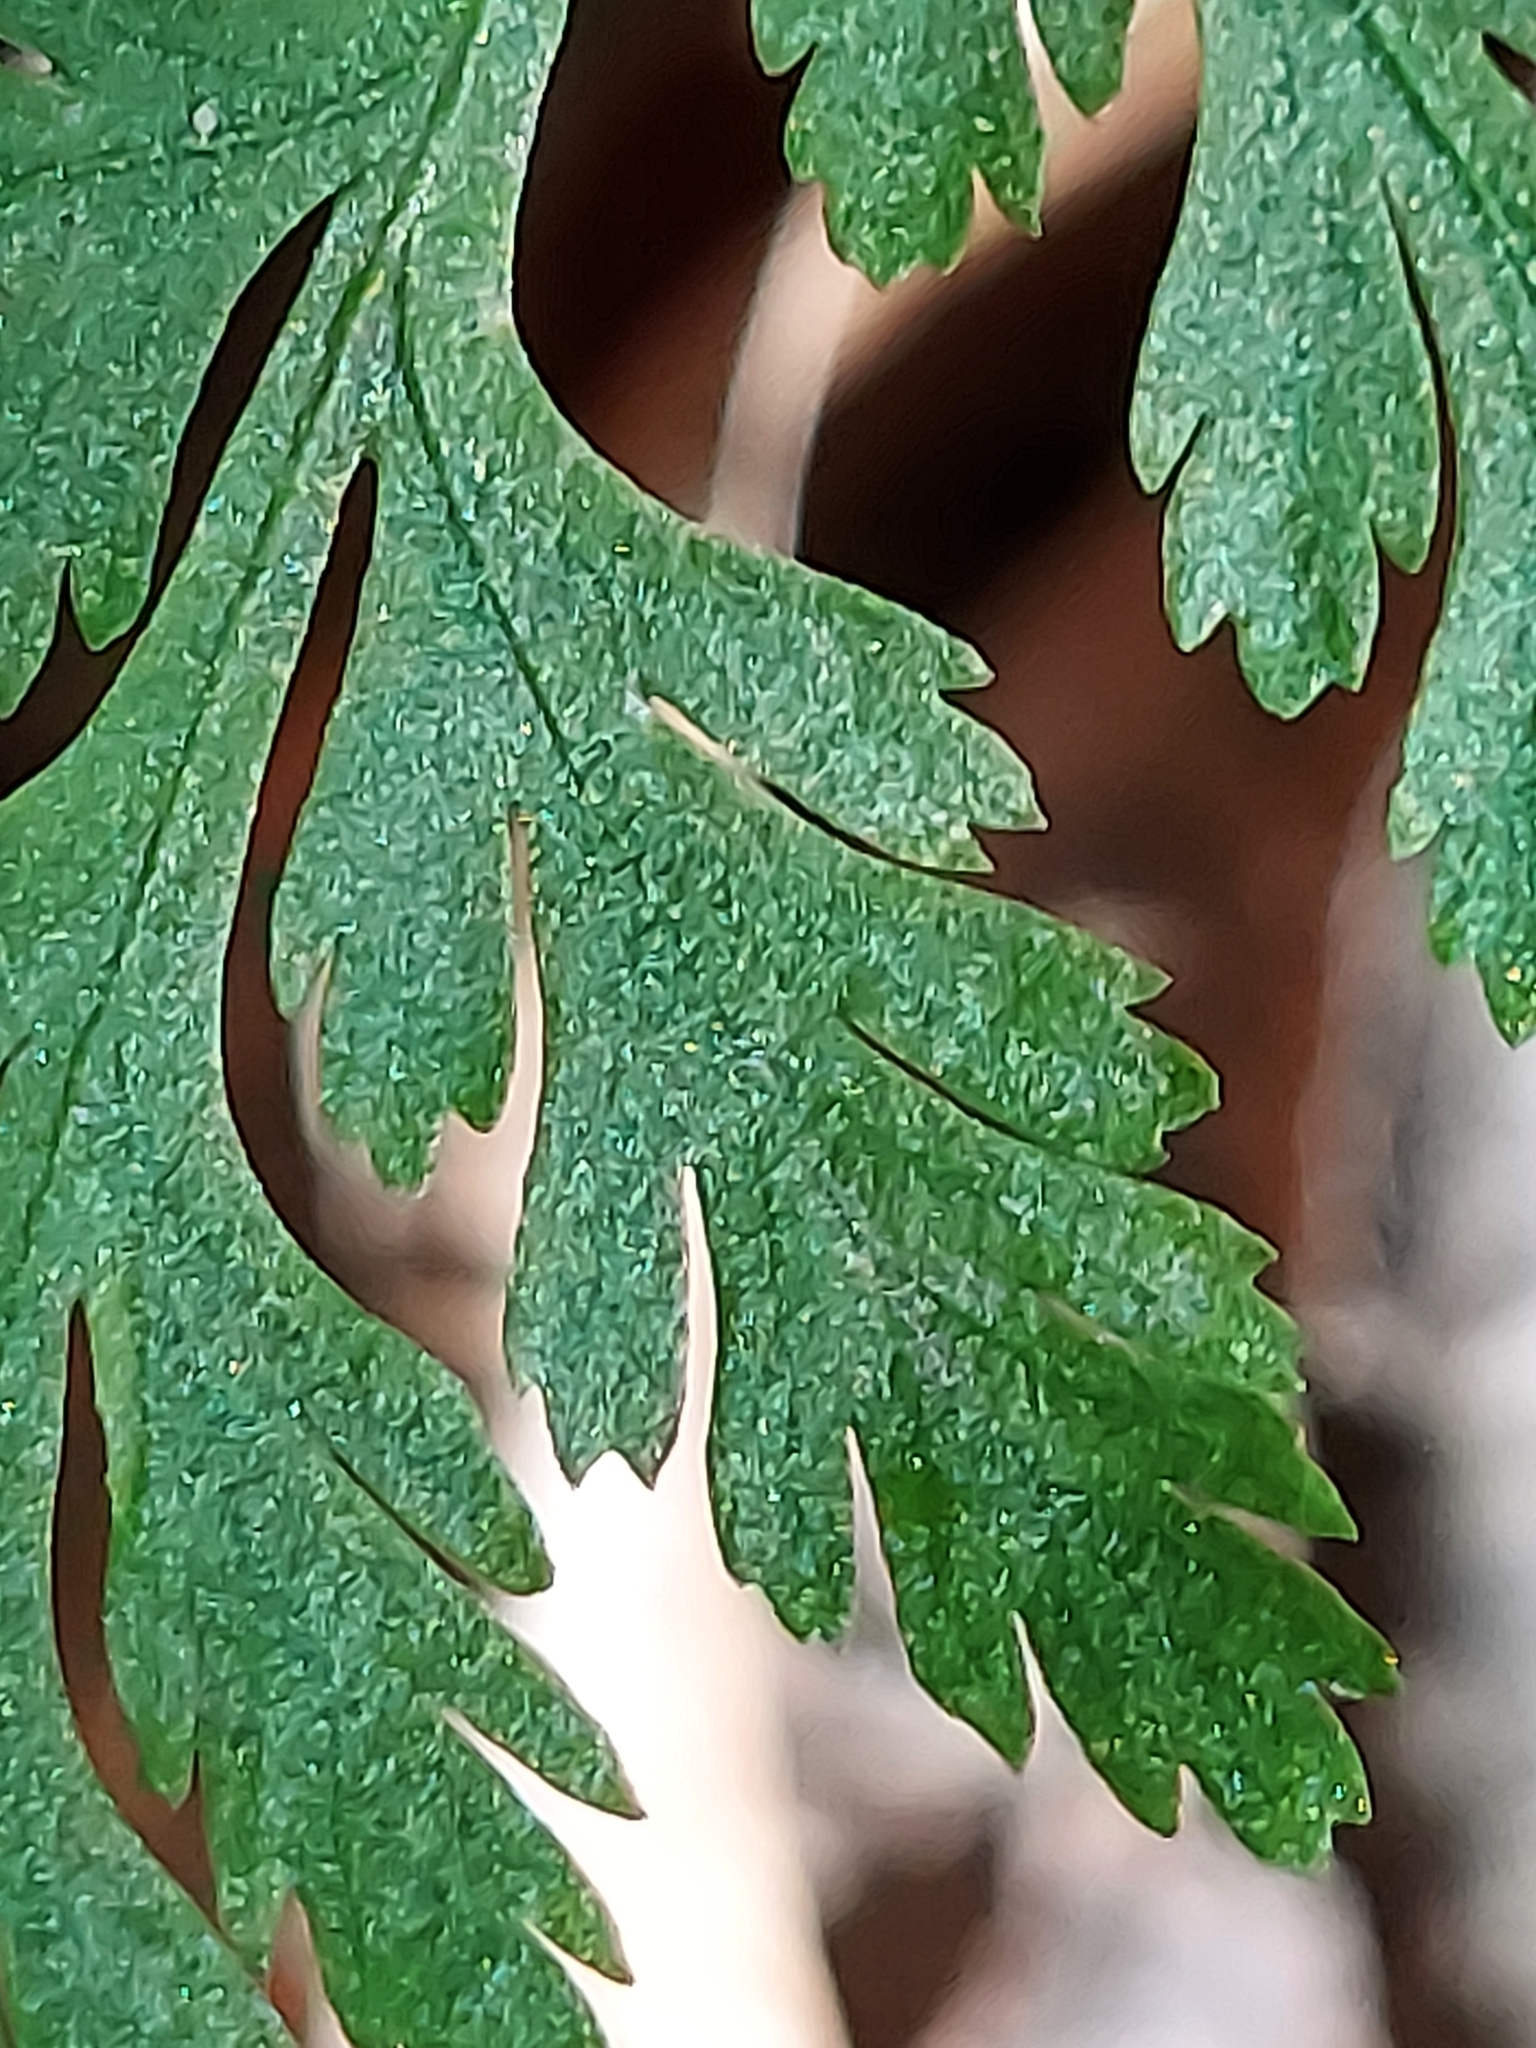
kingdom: Plantae
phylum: Tracheophyta
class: Polypodiopsida
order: Ophioglossales
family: Ophioglossaceae
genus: Botrypus
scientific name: Botrypus virginianus
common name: Common grapefern
